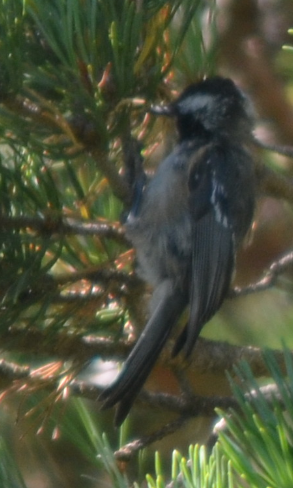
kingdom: Animalia
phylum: Chordata
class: Aves
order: Passeriformes
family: Paridae
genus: Periparus
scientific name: Periparus ater
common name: Coal tit
